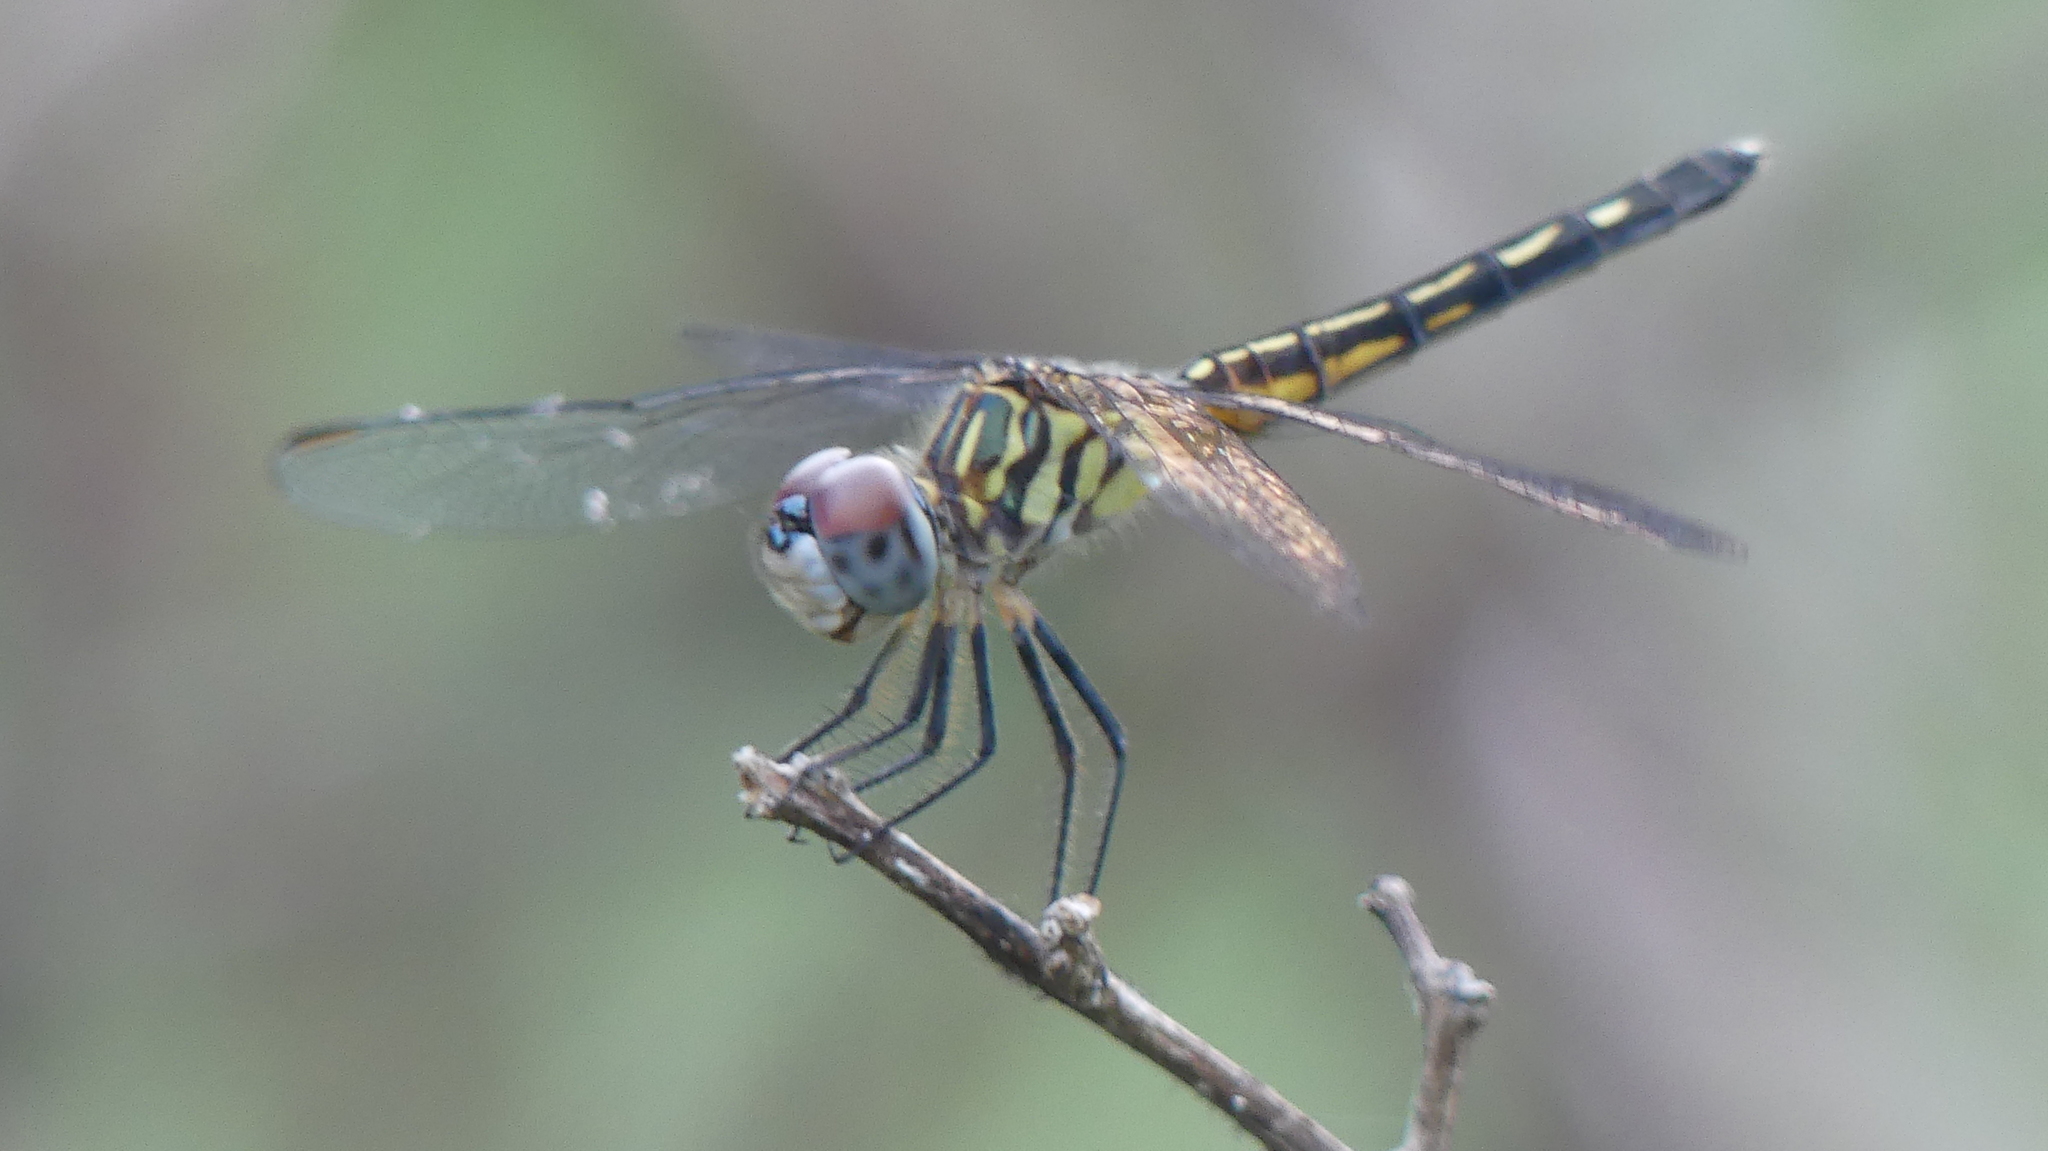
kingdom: Animalia
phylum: Arthropoda
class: Insecta
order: Odonata
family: Libellulidae
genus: Pachydiplax
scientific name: Pachydiplax longipennis
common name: Blue dasher
